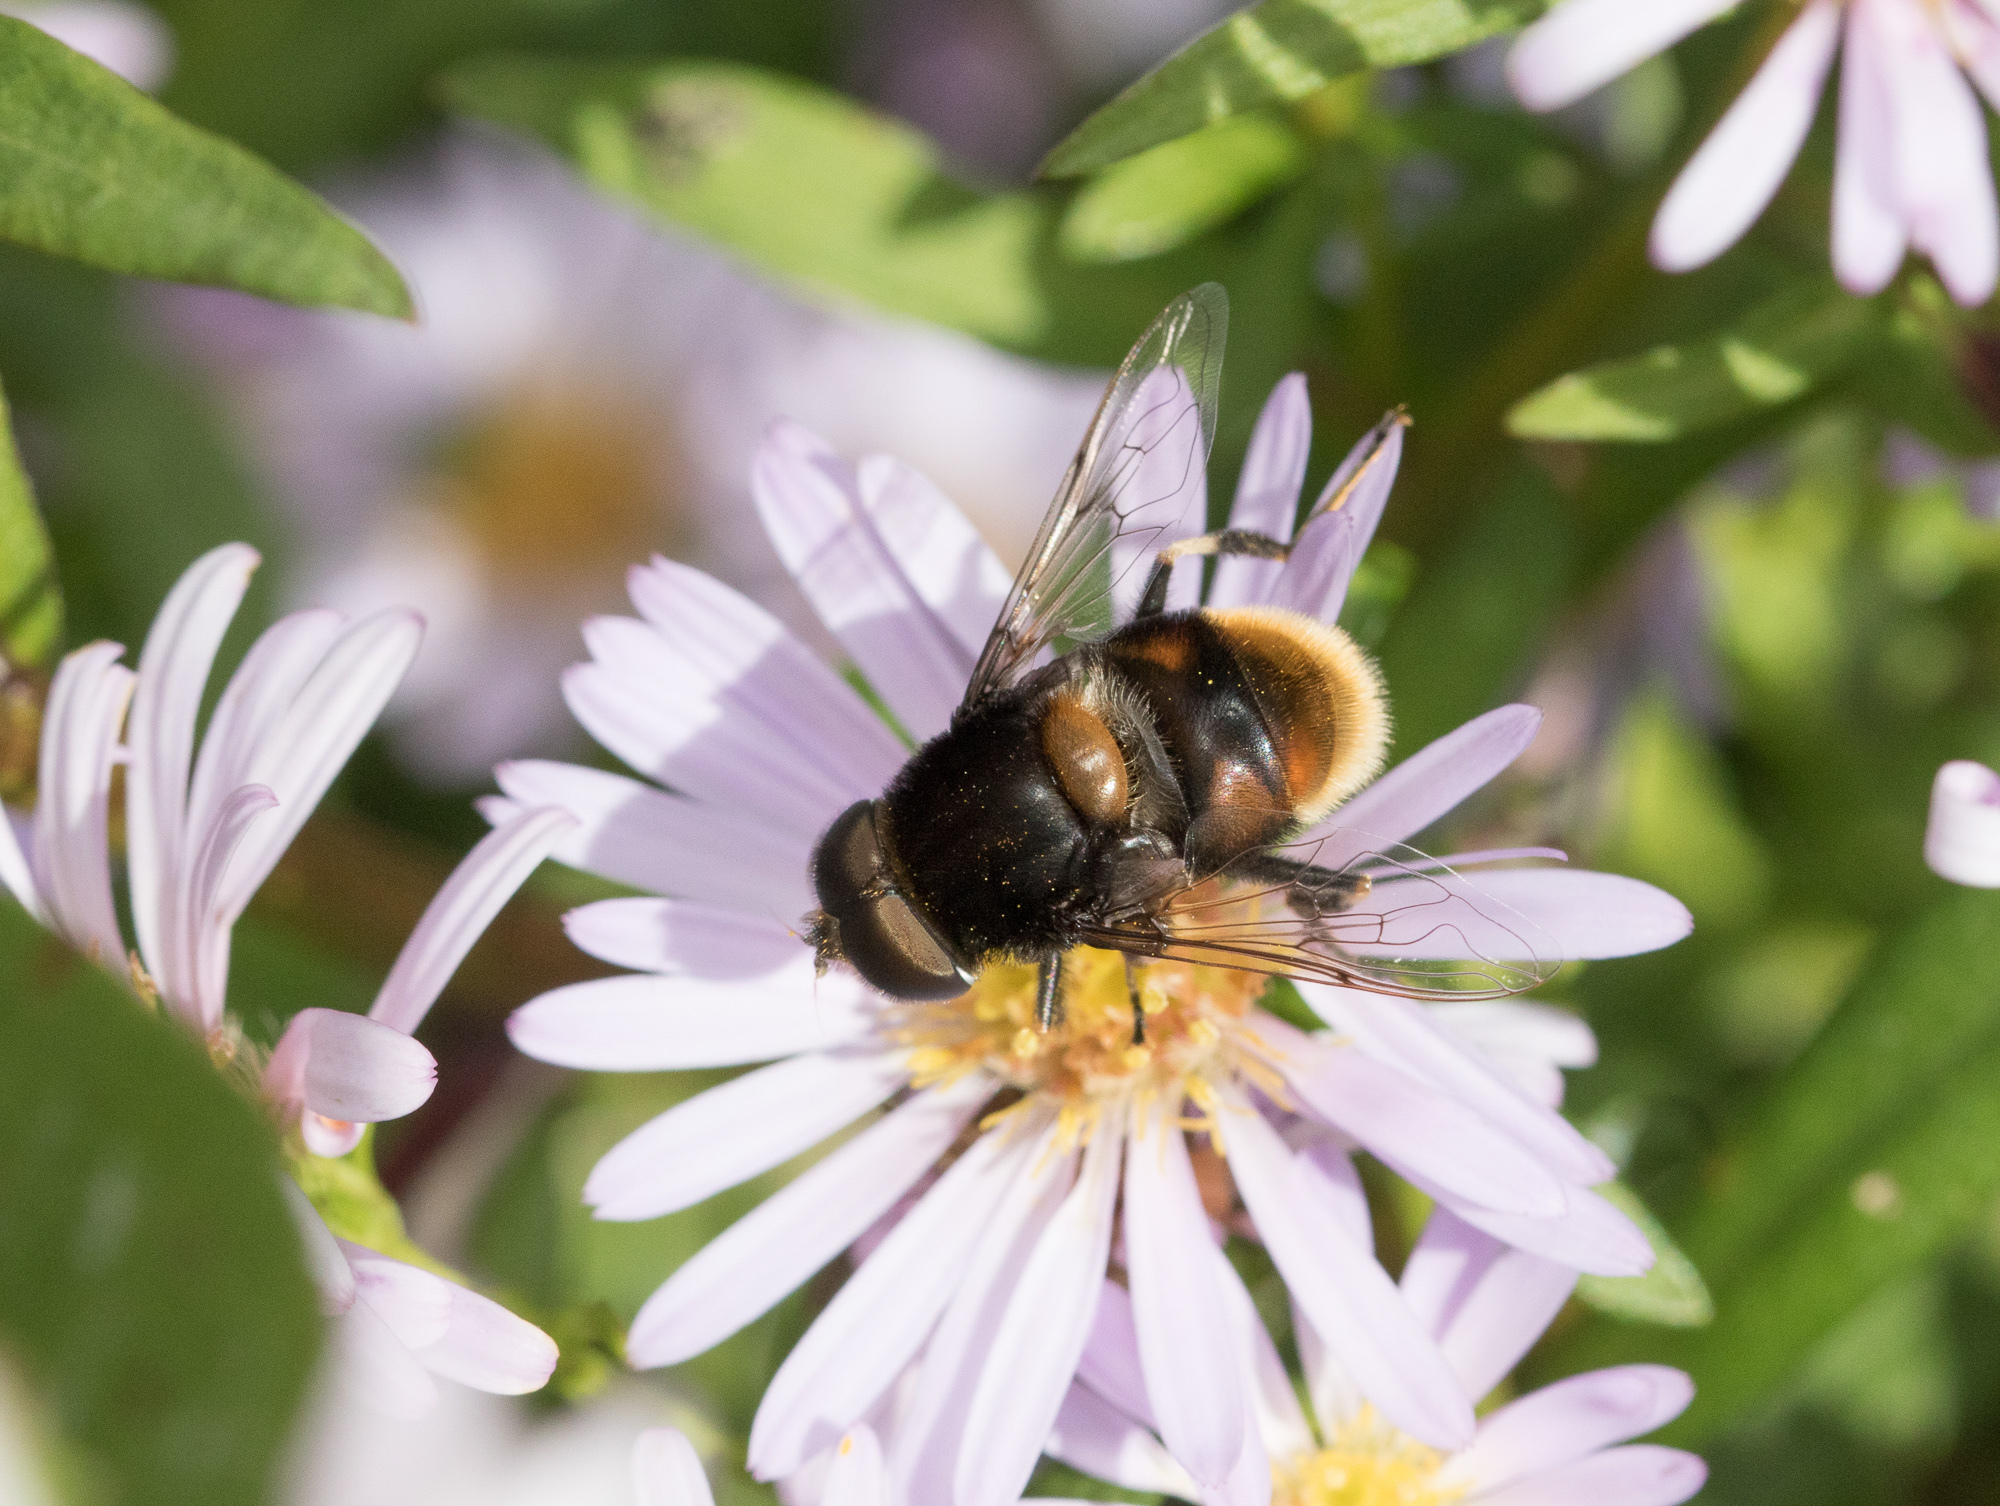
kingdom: Animalia
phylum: Arthropoda
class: Insecta
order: Diptera
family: Syrphidae
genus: Eristalis
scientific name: Eristalis intricaria
